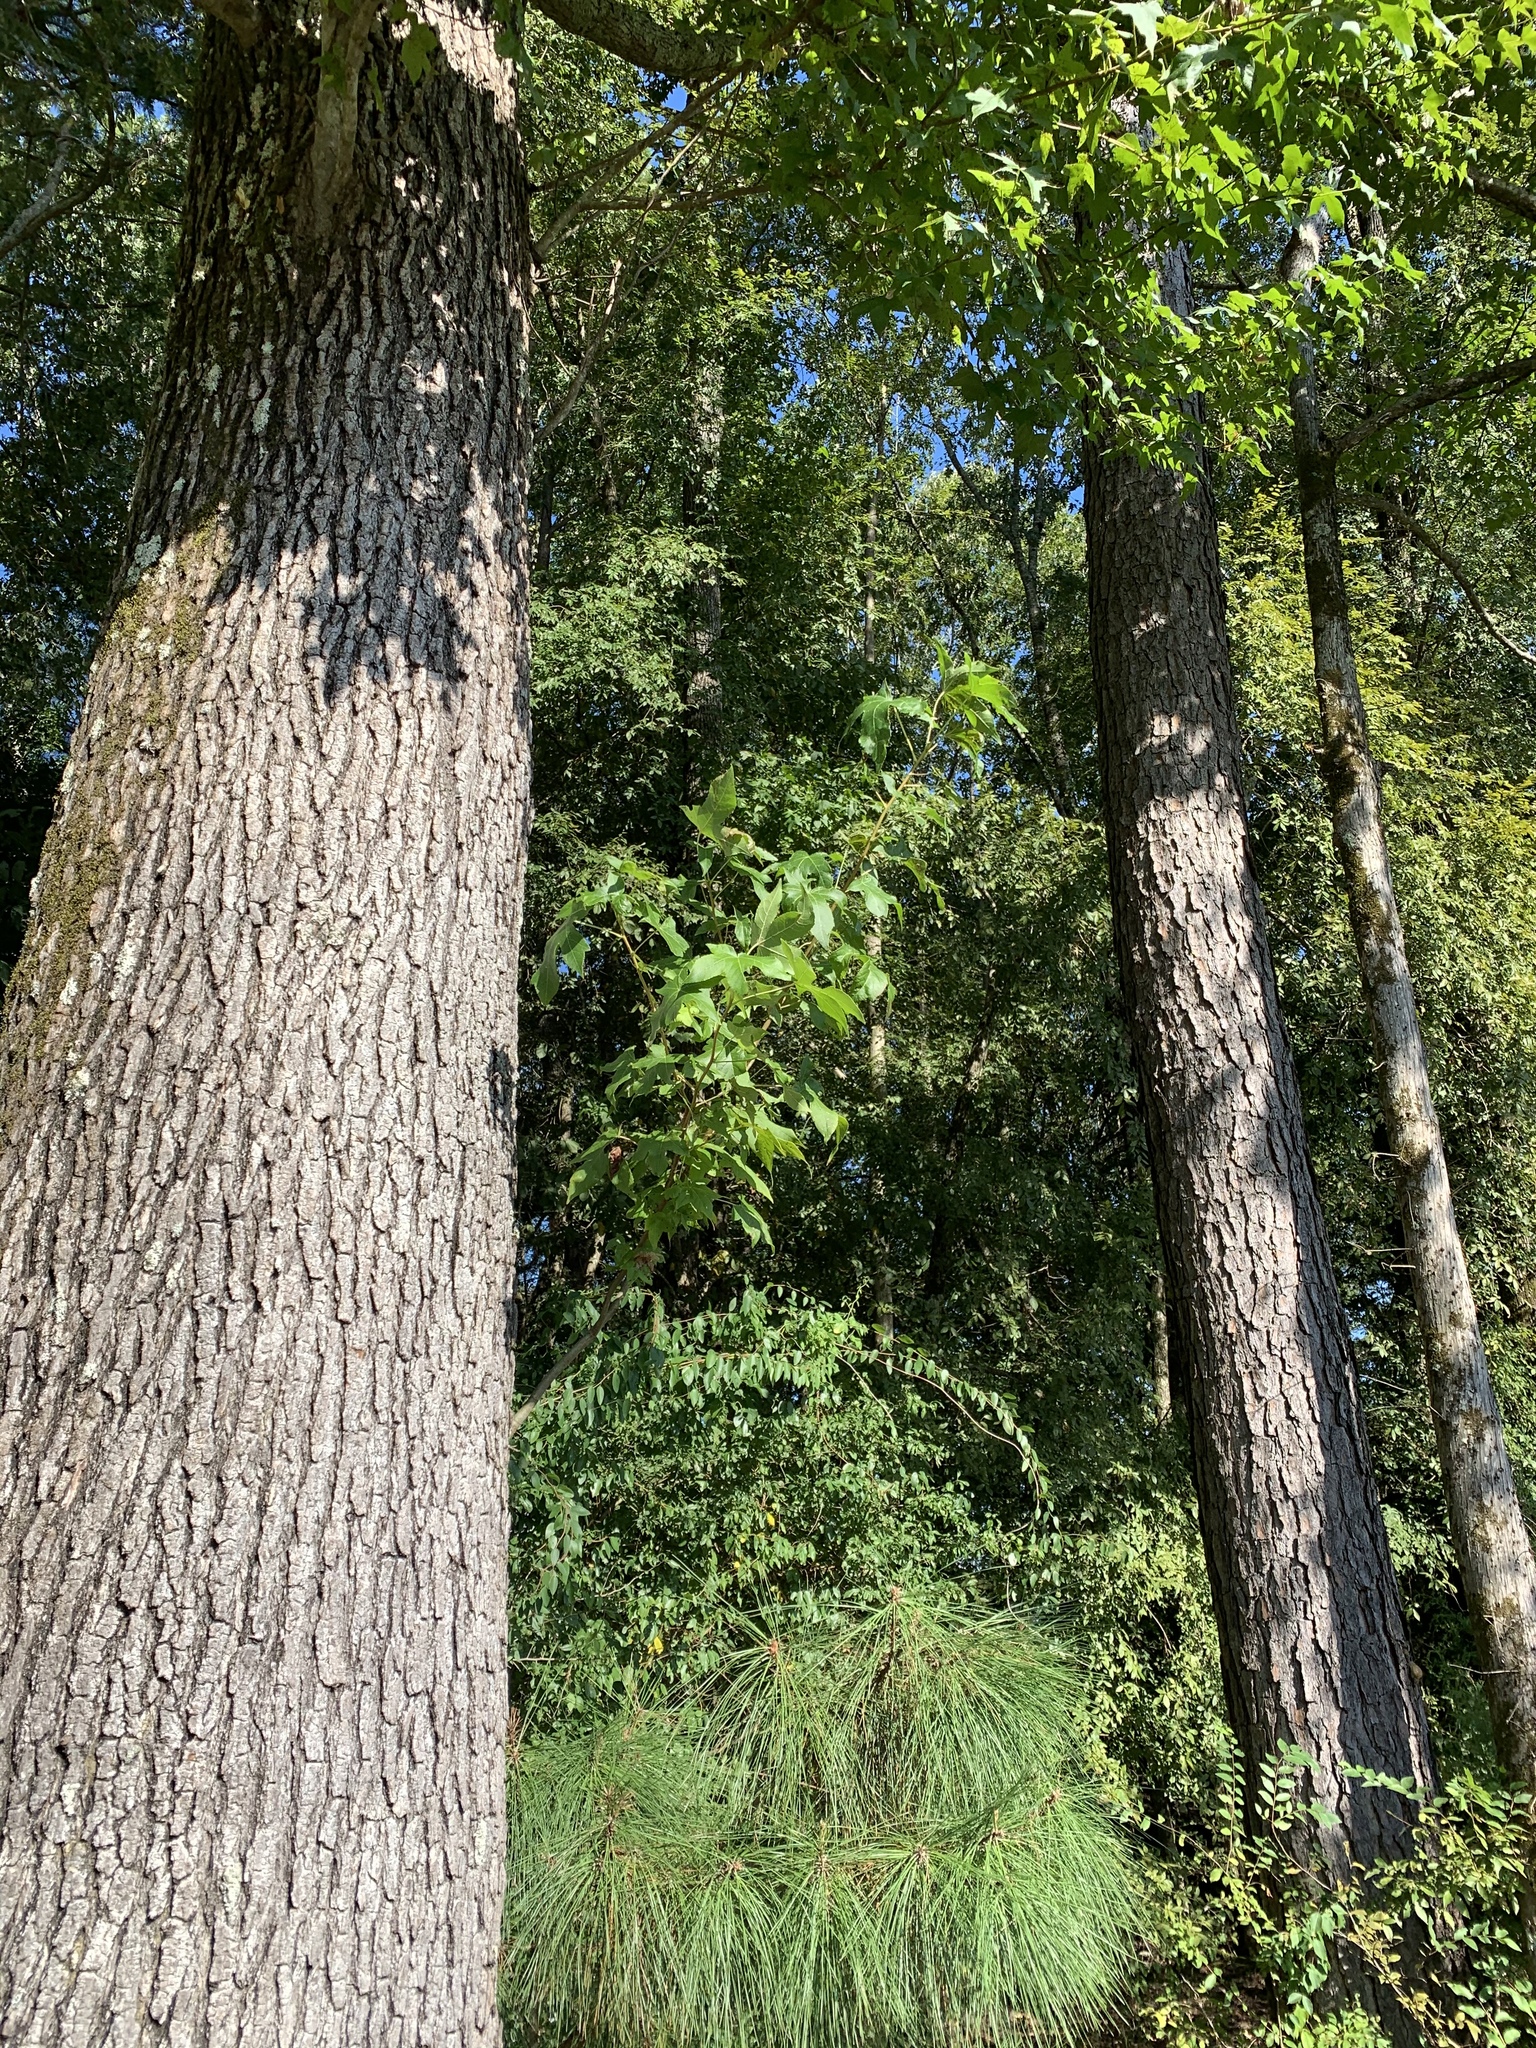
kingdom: Plantae
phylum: Tracheophyta
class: Magnoliopsida
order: Saxifragales
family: Altingiaceae
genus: Liquidambar
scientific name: Liquidambar styraciflua
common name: Sweet gum
